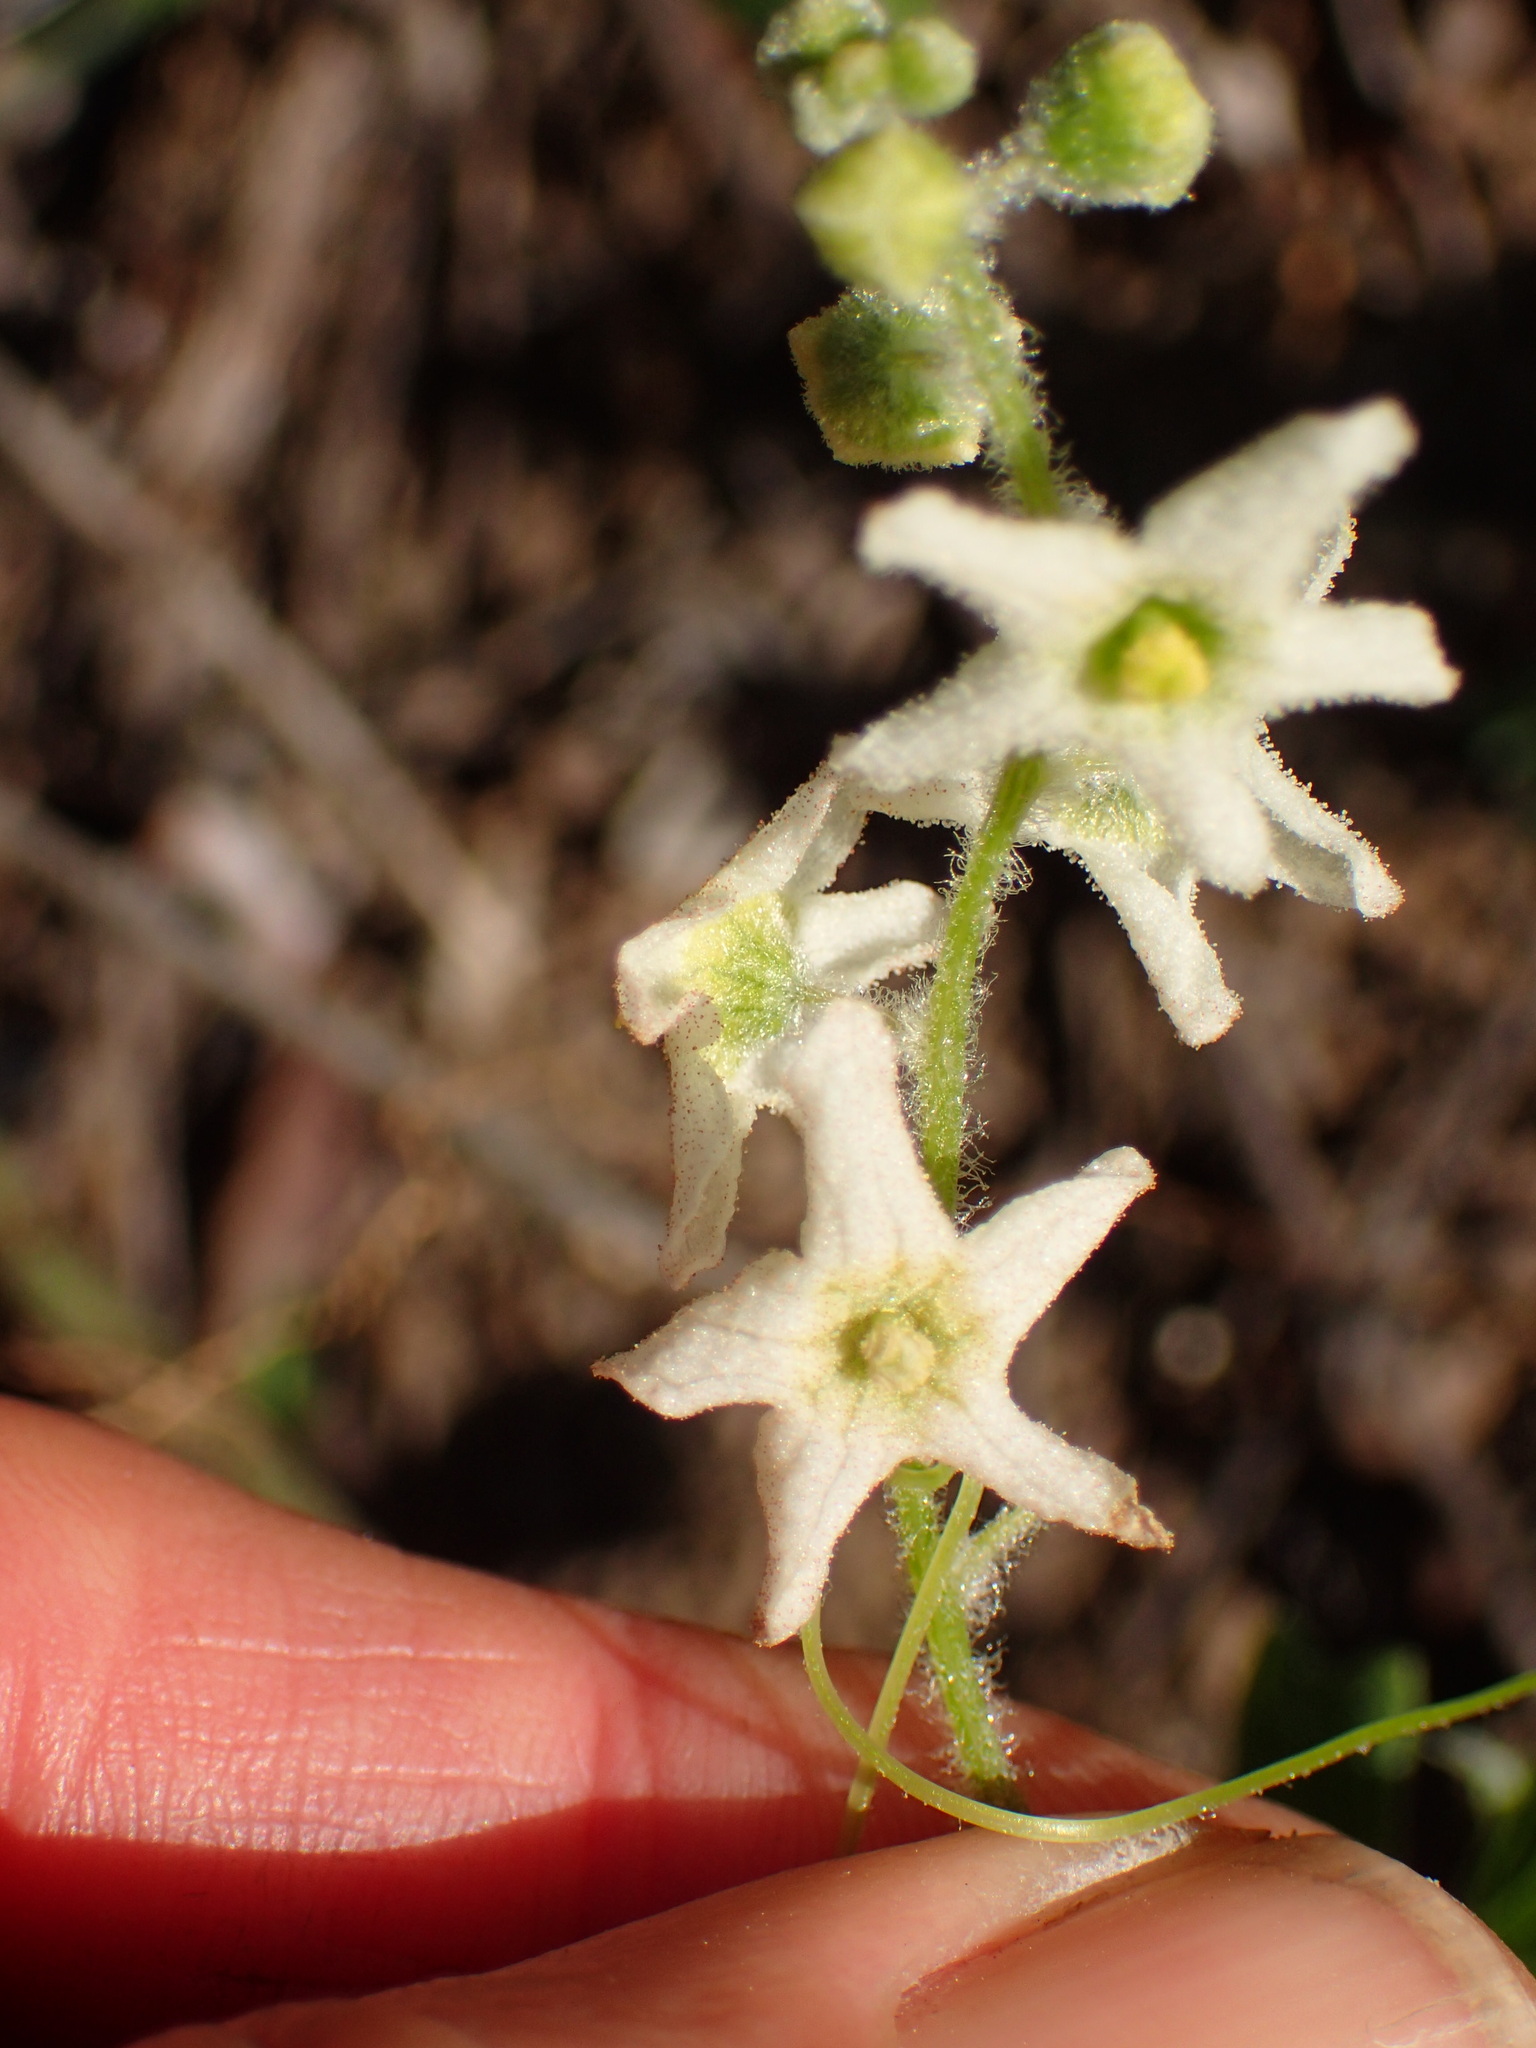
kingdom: Plantae
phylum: Tracheophyta
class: Magnoliopsida
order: Cucurbitales
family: Cucurbitaceae
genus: Marah
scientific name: Marah fabacea
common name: California manroot
